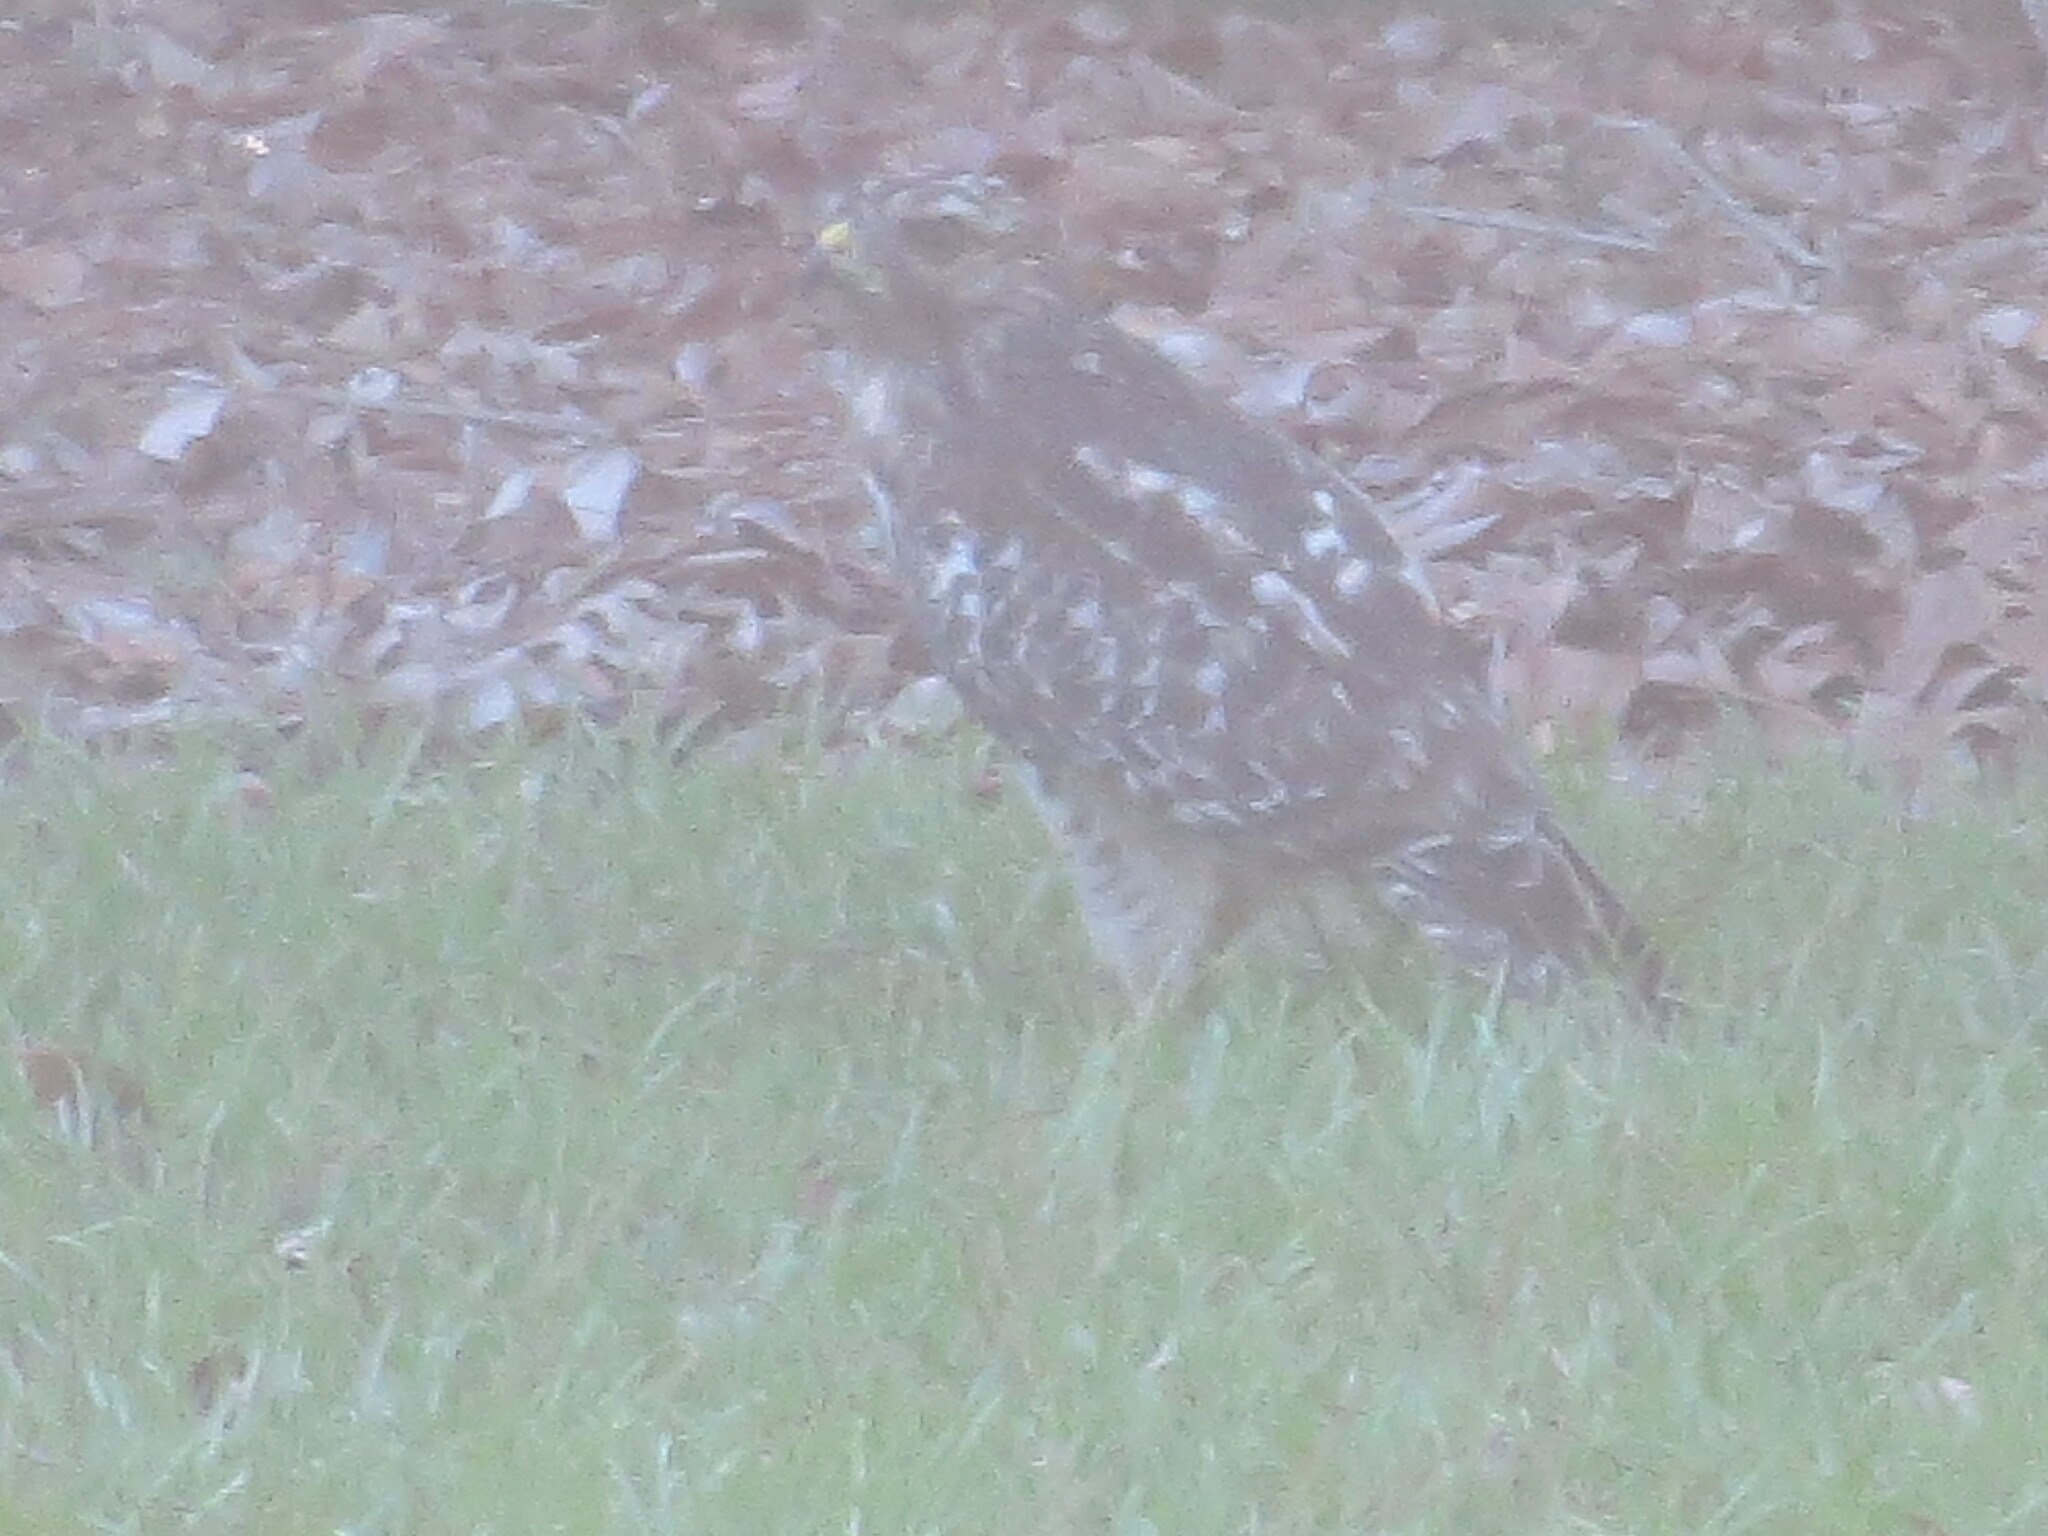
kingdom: Animalia
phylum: Chordata
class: Aves
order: Accipitriformes
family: Accipitridae
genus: Buteo
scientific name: Buteo lineatus
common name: Red-shouldered hawk
